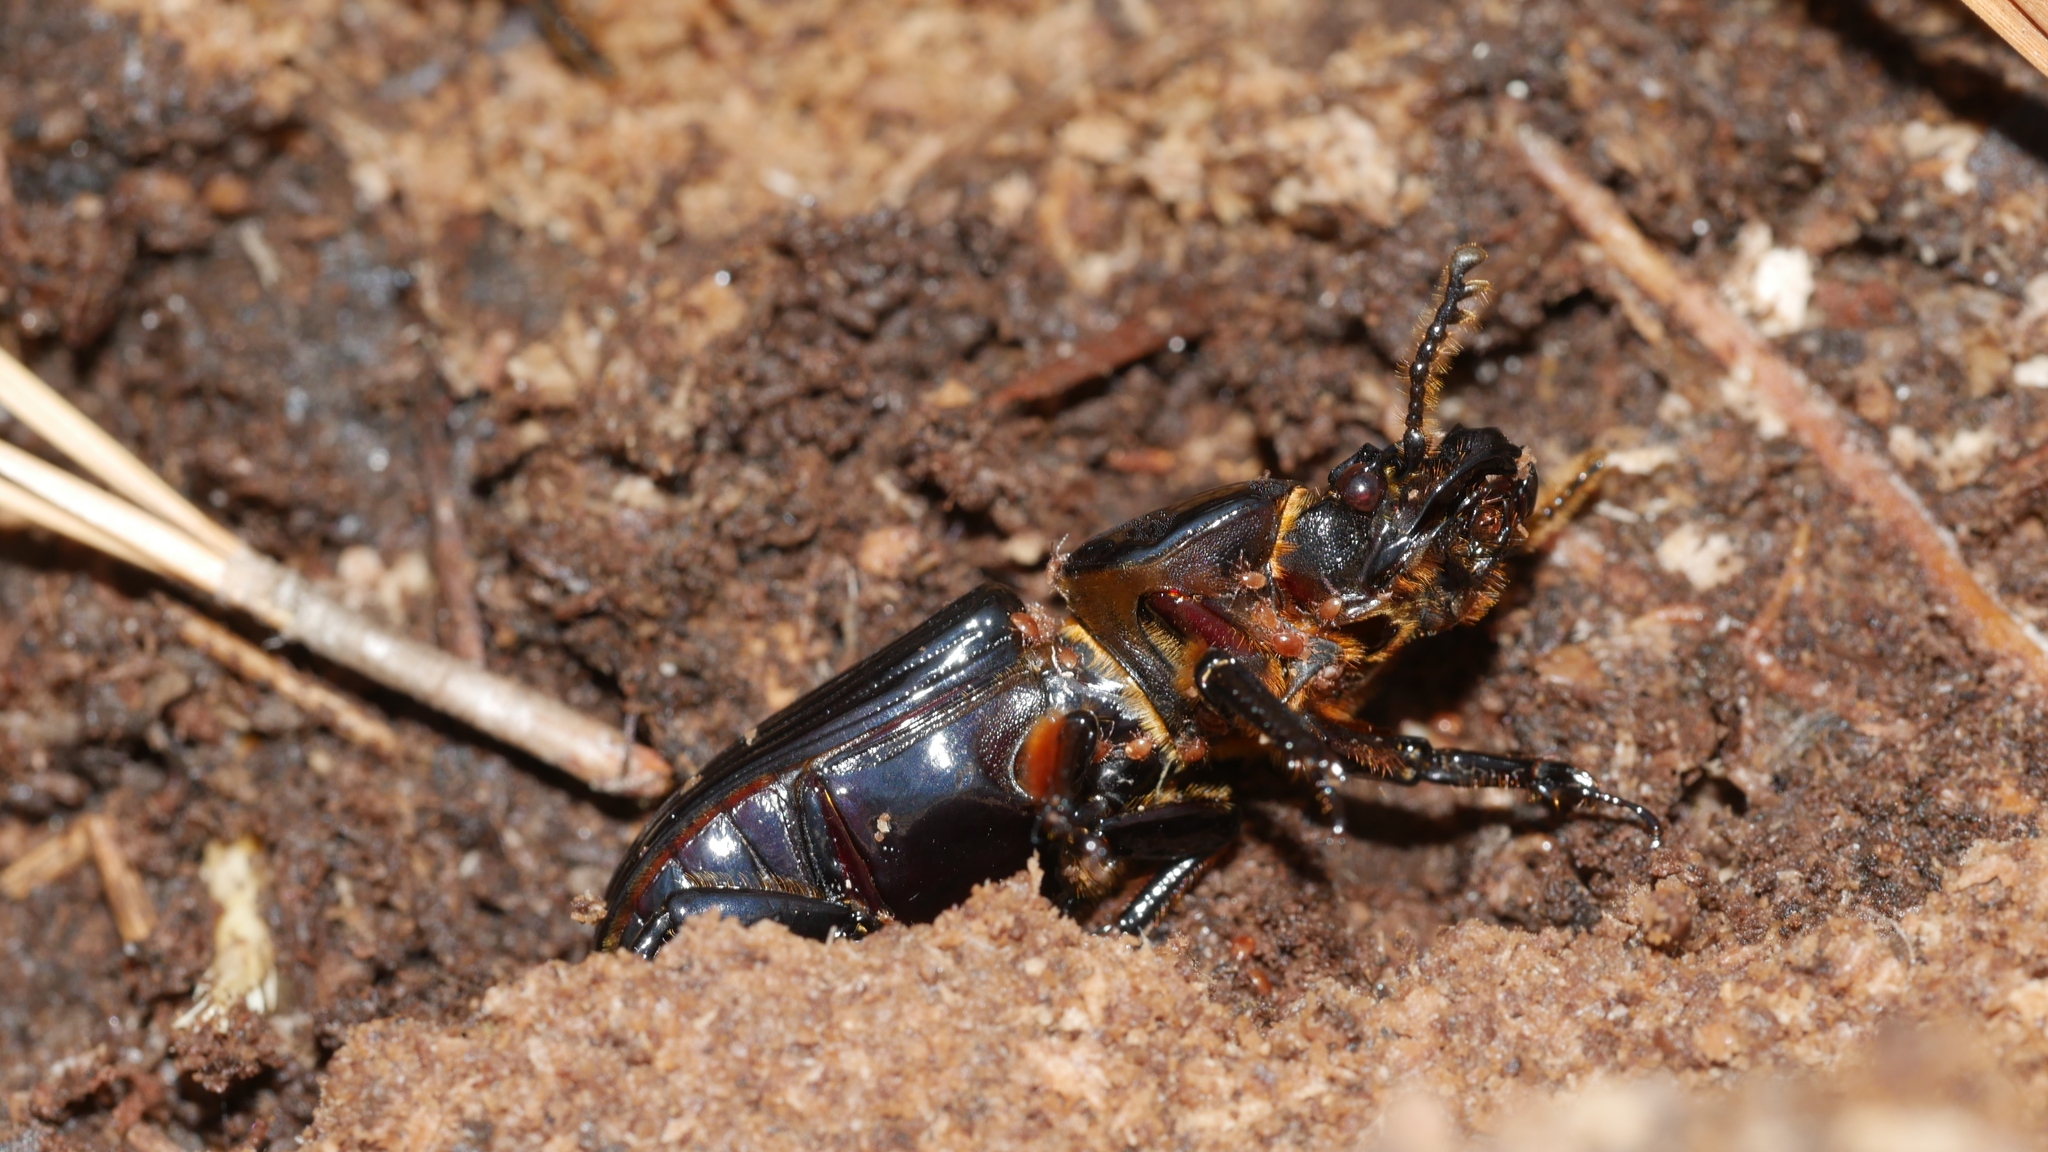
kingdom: Animalia
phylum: Arthropoda
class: Insecta
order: Coleoptera
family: Passalidae
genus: Odontotaenius
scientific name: Odontotaenius disjunctus
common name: Patent leather beetle
